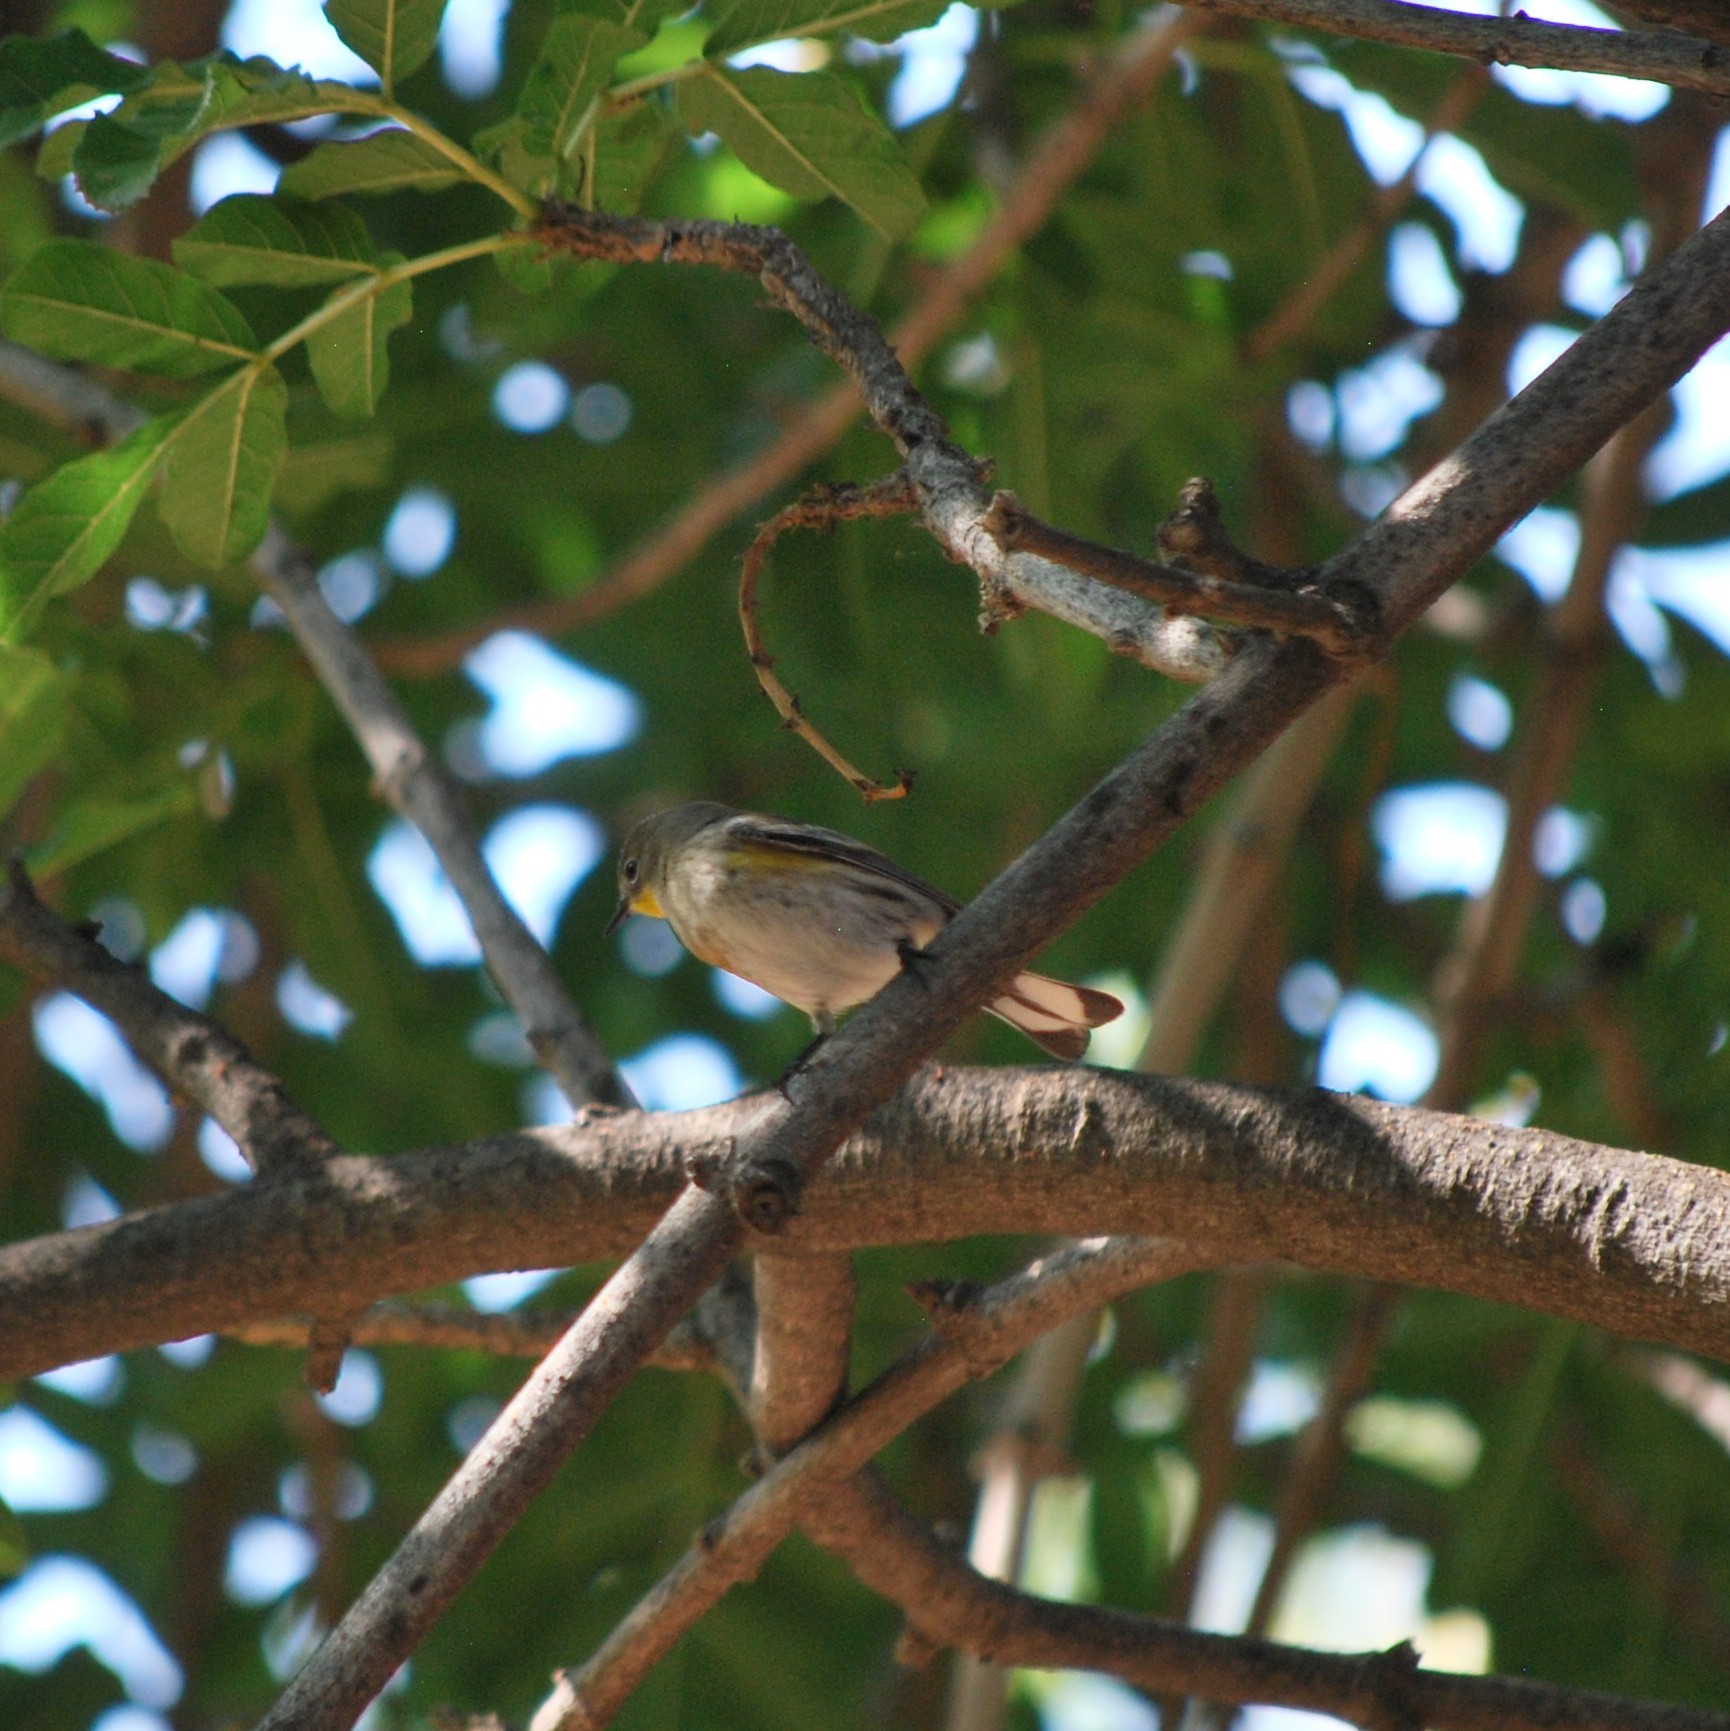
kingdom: Animalia
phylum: Chordata
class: Aves
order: Passeriformes
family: Parulidae
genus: Setophaga
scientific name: Setophaga auduboni
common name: Audubon's warbler
